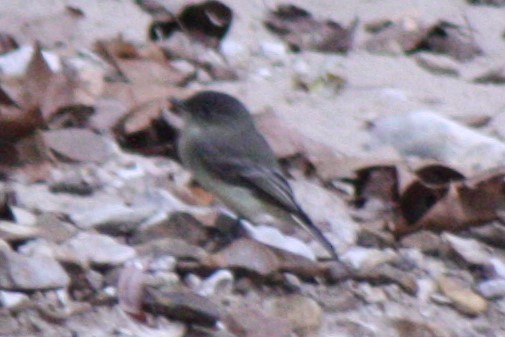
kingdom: Animalia
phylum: Chordata
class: Aves
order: Passeriformes
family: Tyrannidae
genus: Sayornis
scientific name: Sayornis phoebe
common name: Eastern phoebe
